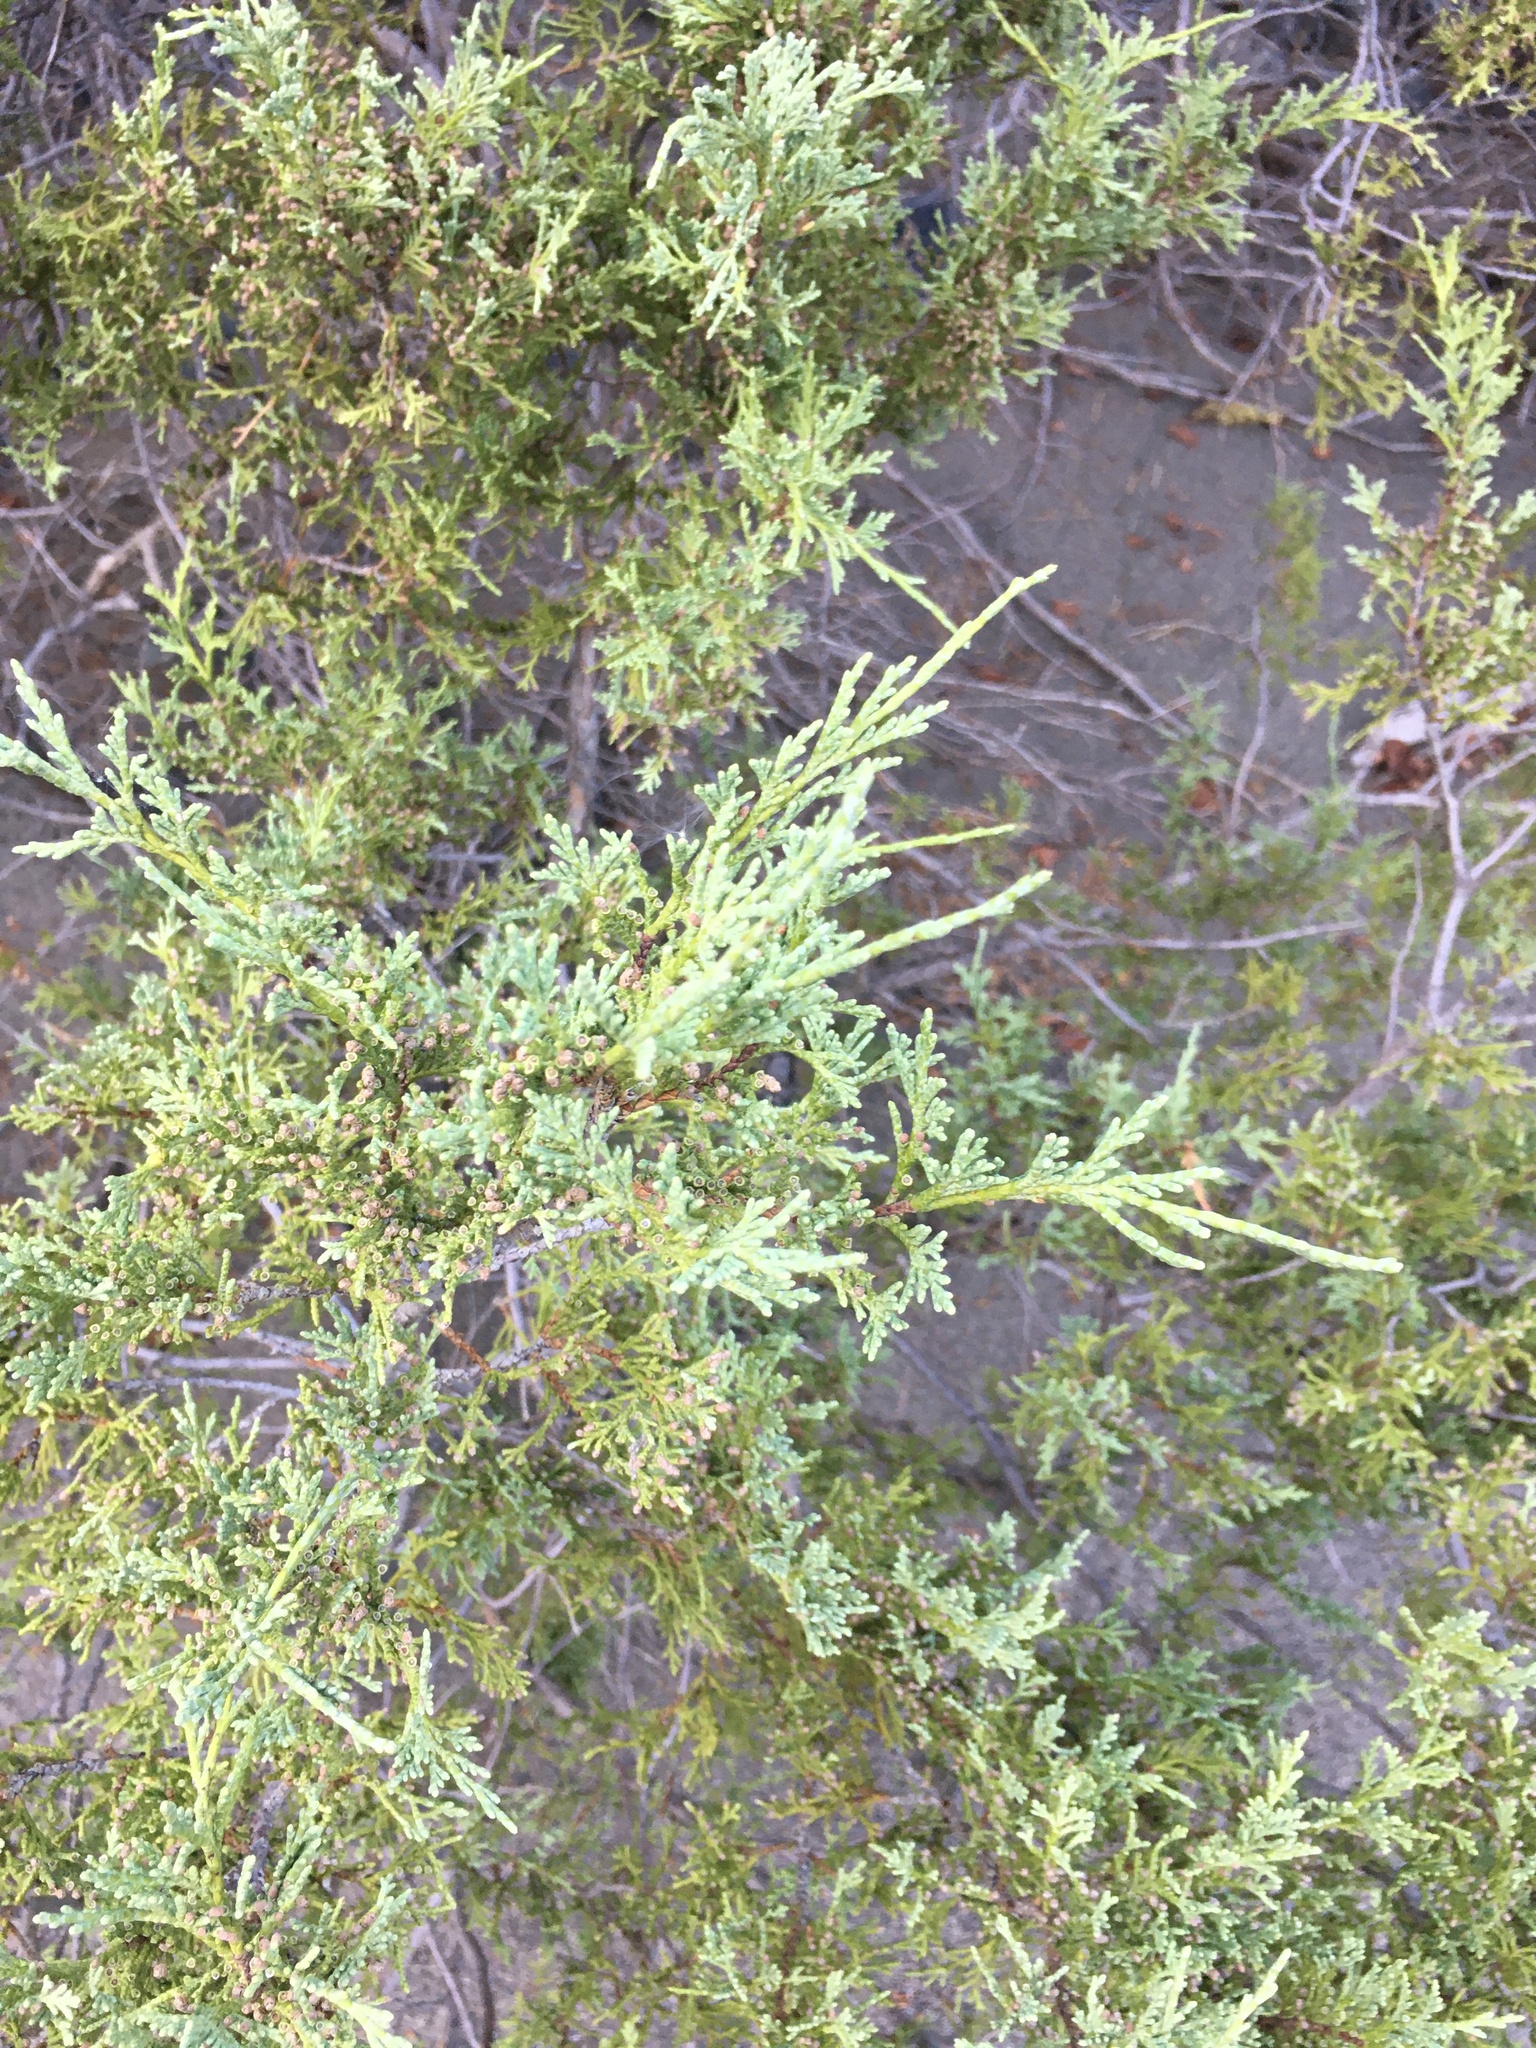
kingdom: Plantae
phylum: Tracheophyta
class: Pinopsida
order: Pinales
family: Cupressaceae
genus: Juniperus
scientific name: Juniperus scopulorum
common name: Rocky mountain juniper
